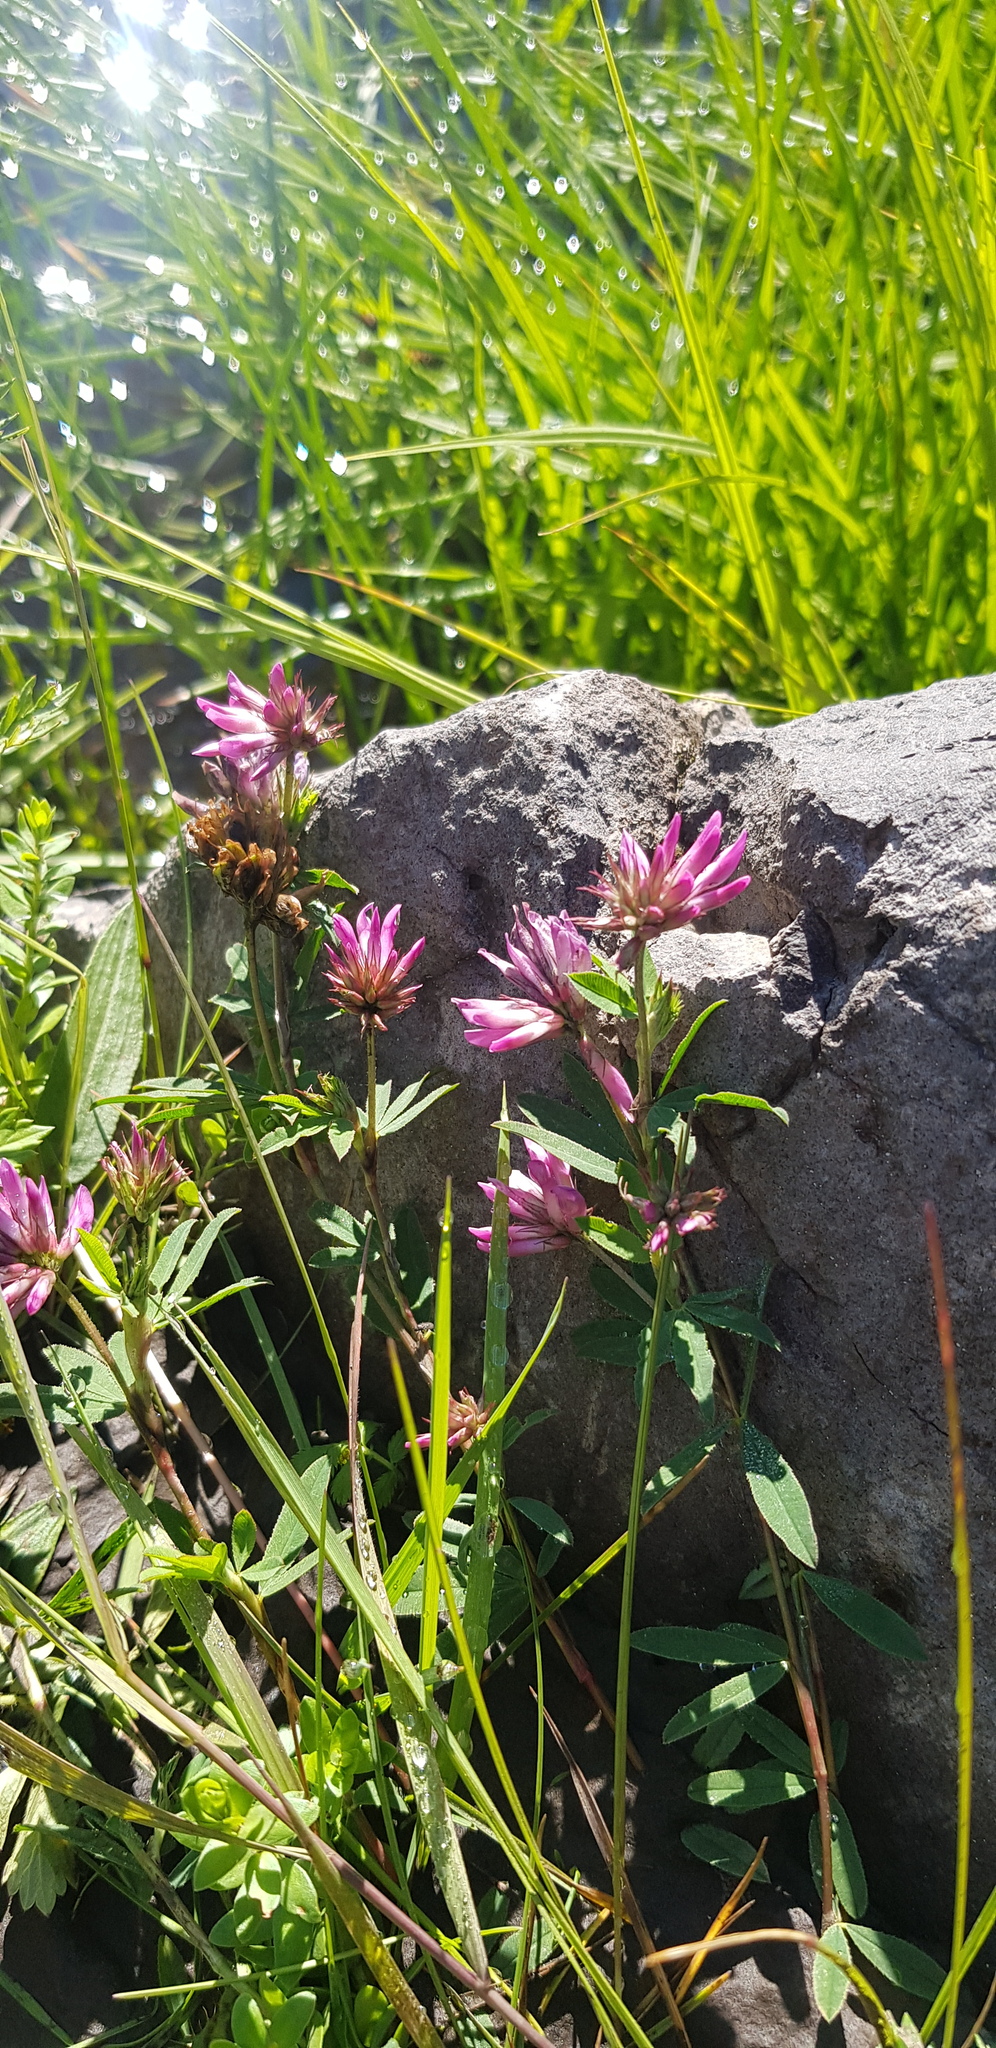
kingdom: Plantae
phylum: Tracheophyta
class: Magnoliopsida
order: Fabales
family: Fabaceae
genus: Trifolium
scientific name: Trifolium lupinaster
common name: Lupine clover
